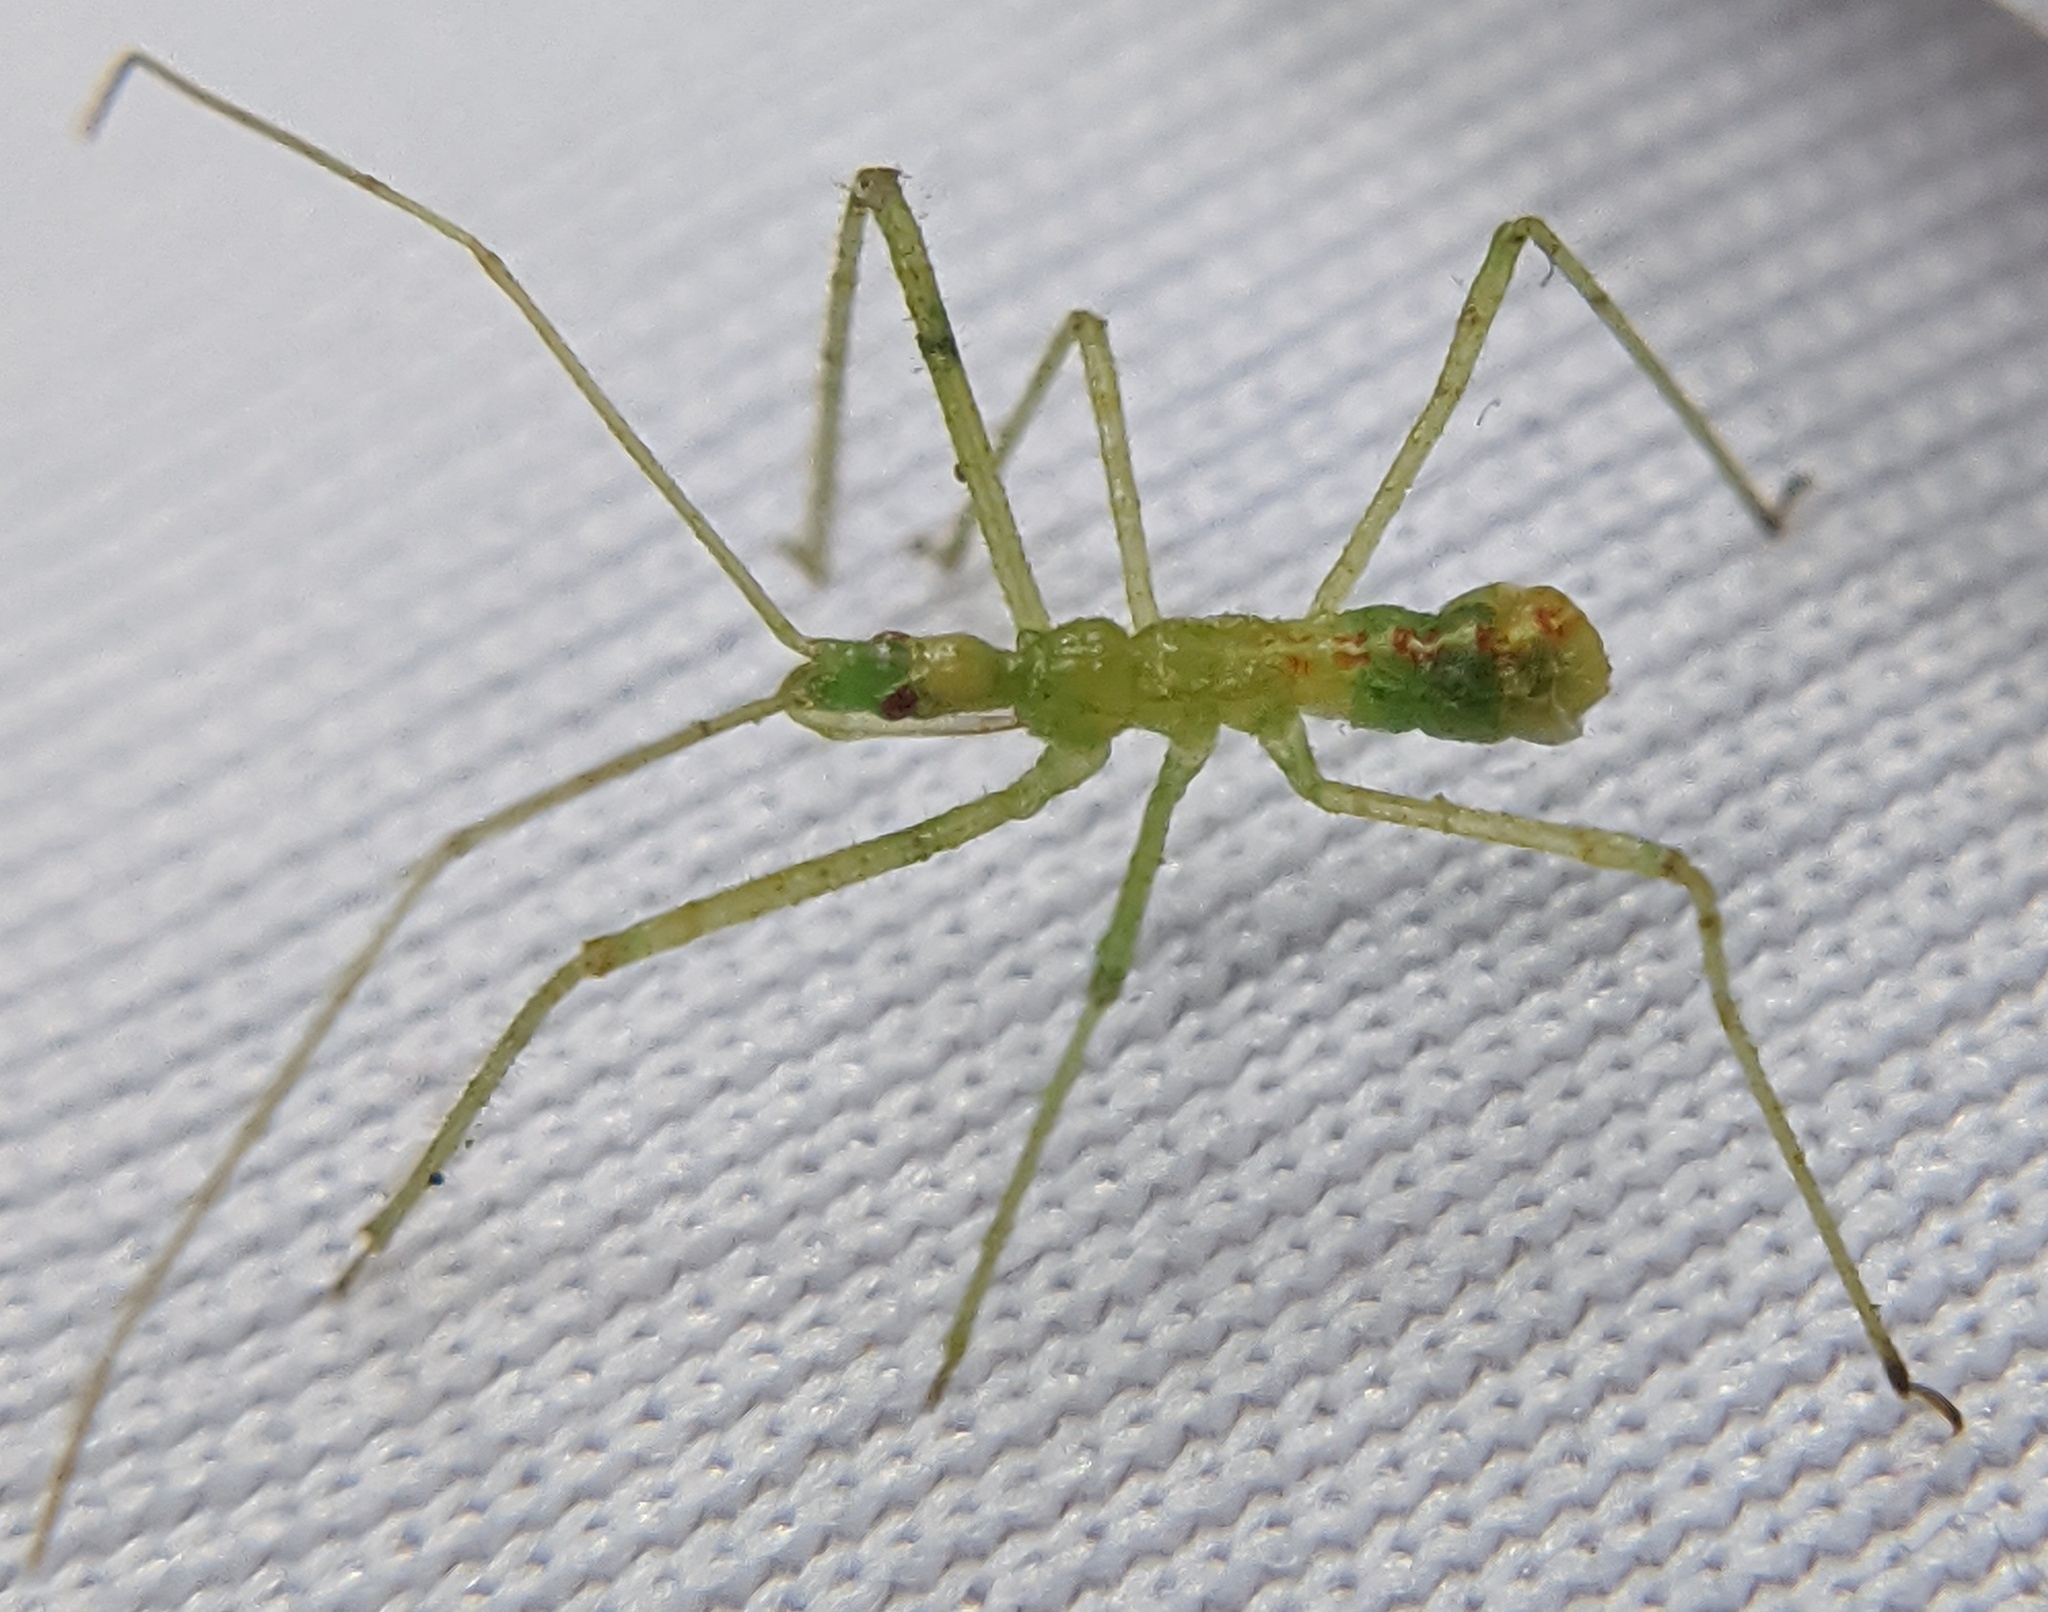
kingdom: Animalia
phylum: Arthropoda
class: Insecta
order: Hemiptera
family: Reduviidae
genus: Zelus
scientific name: Zelus luridus
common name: Pale green assassin bug
